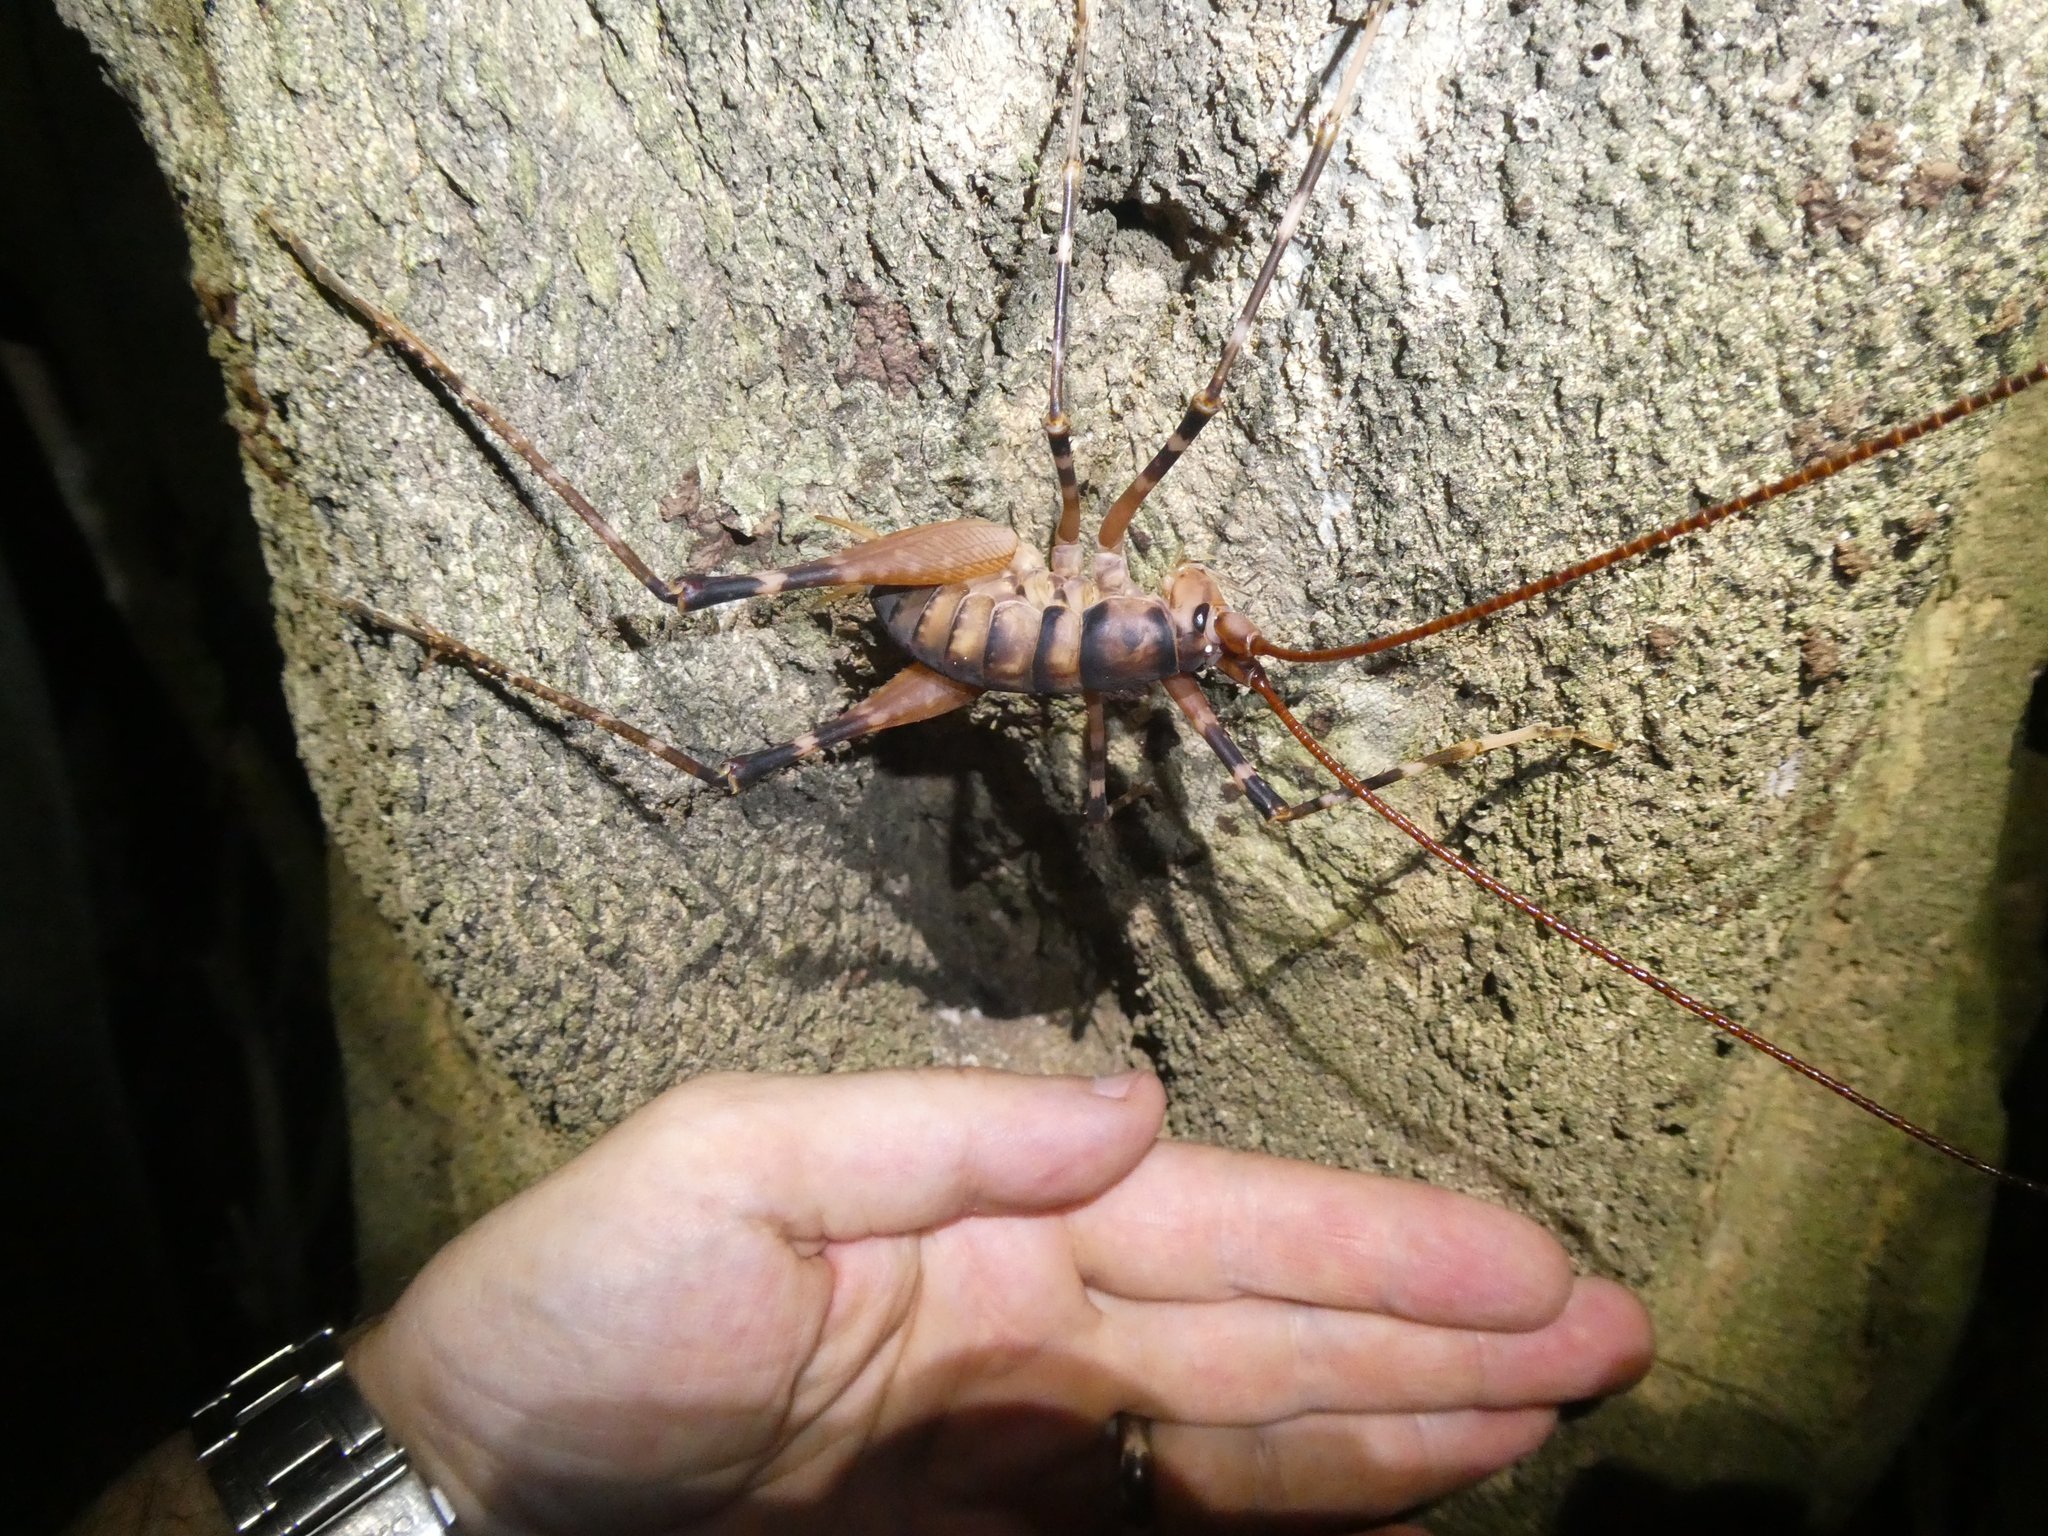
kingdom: Animalia
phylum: Arthropoda
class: Insecta
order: Orthoptera
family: Rhaphidophoridae
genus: Pachyrhamma
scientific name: Pachyrhamma edwardsii
